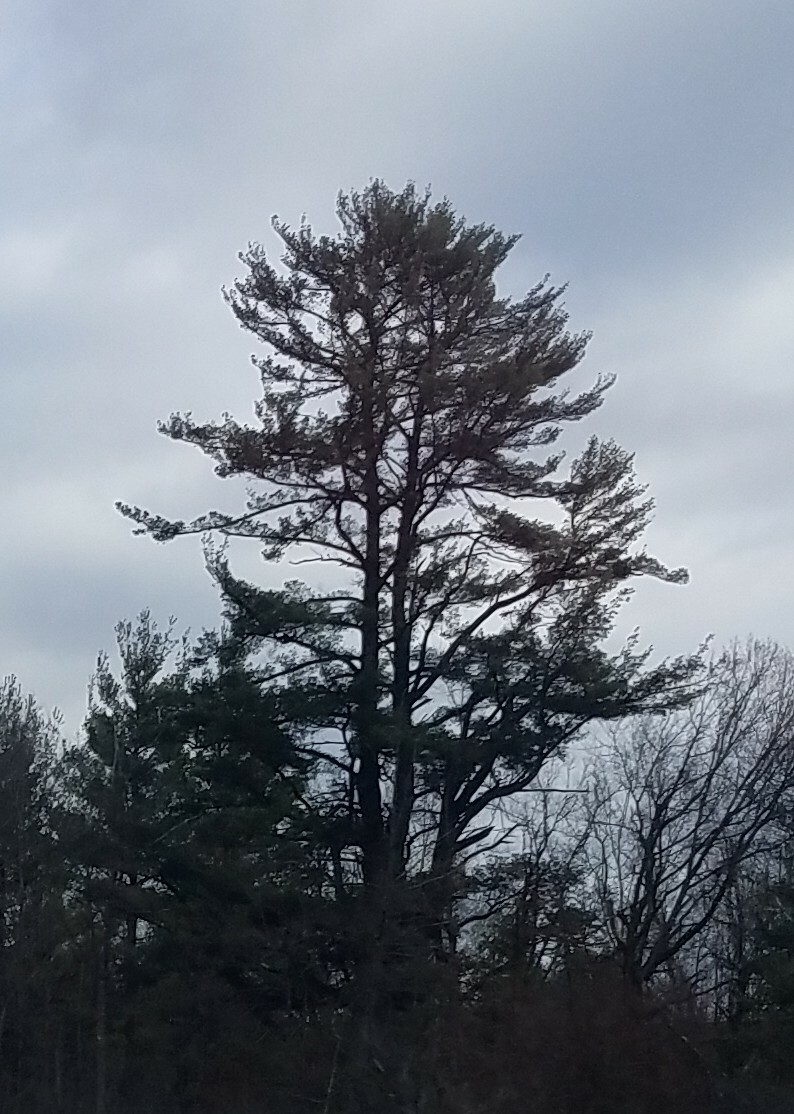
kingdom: Plantae
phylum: Tracheophyta
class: Pinopsida
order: Pinales
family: Pinaceae
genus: Pinus
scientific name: Pinus strobus
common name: Weymouth pine
